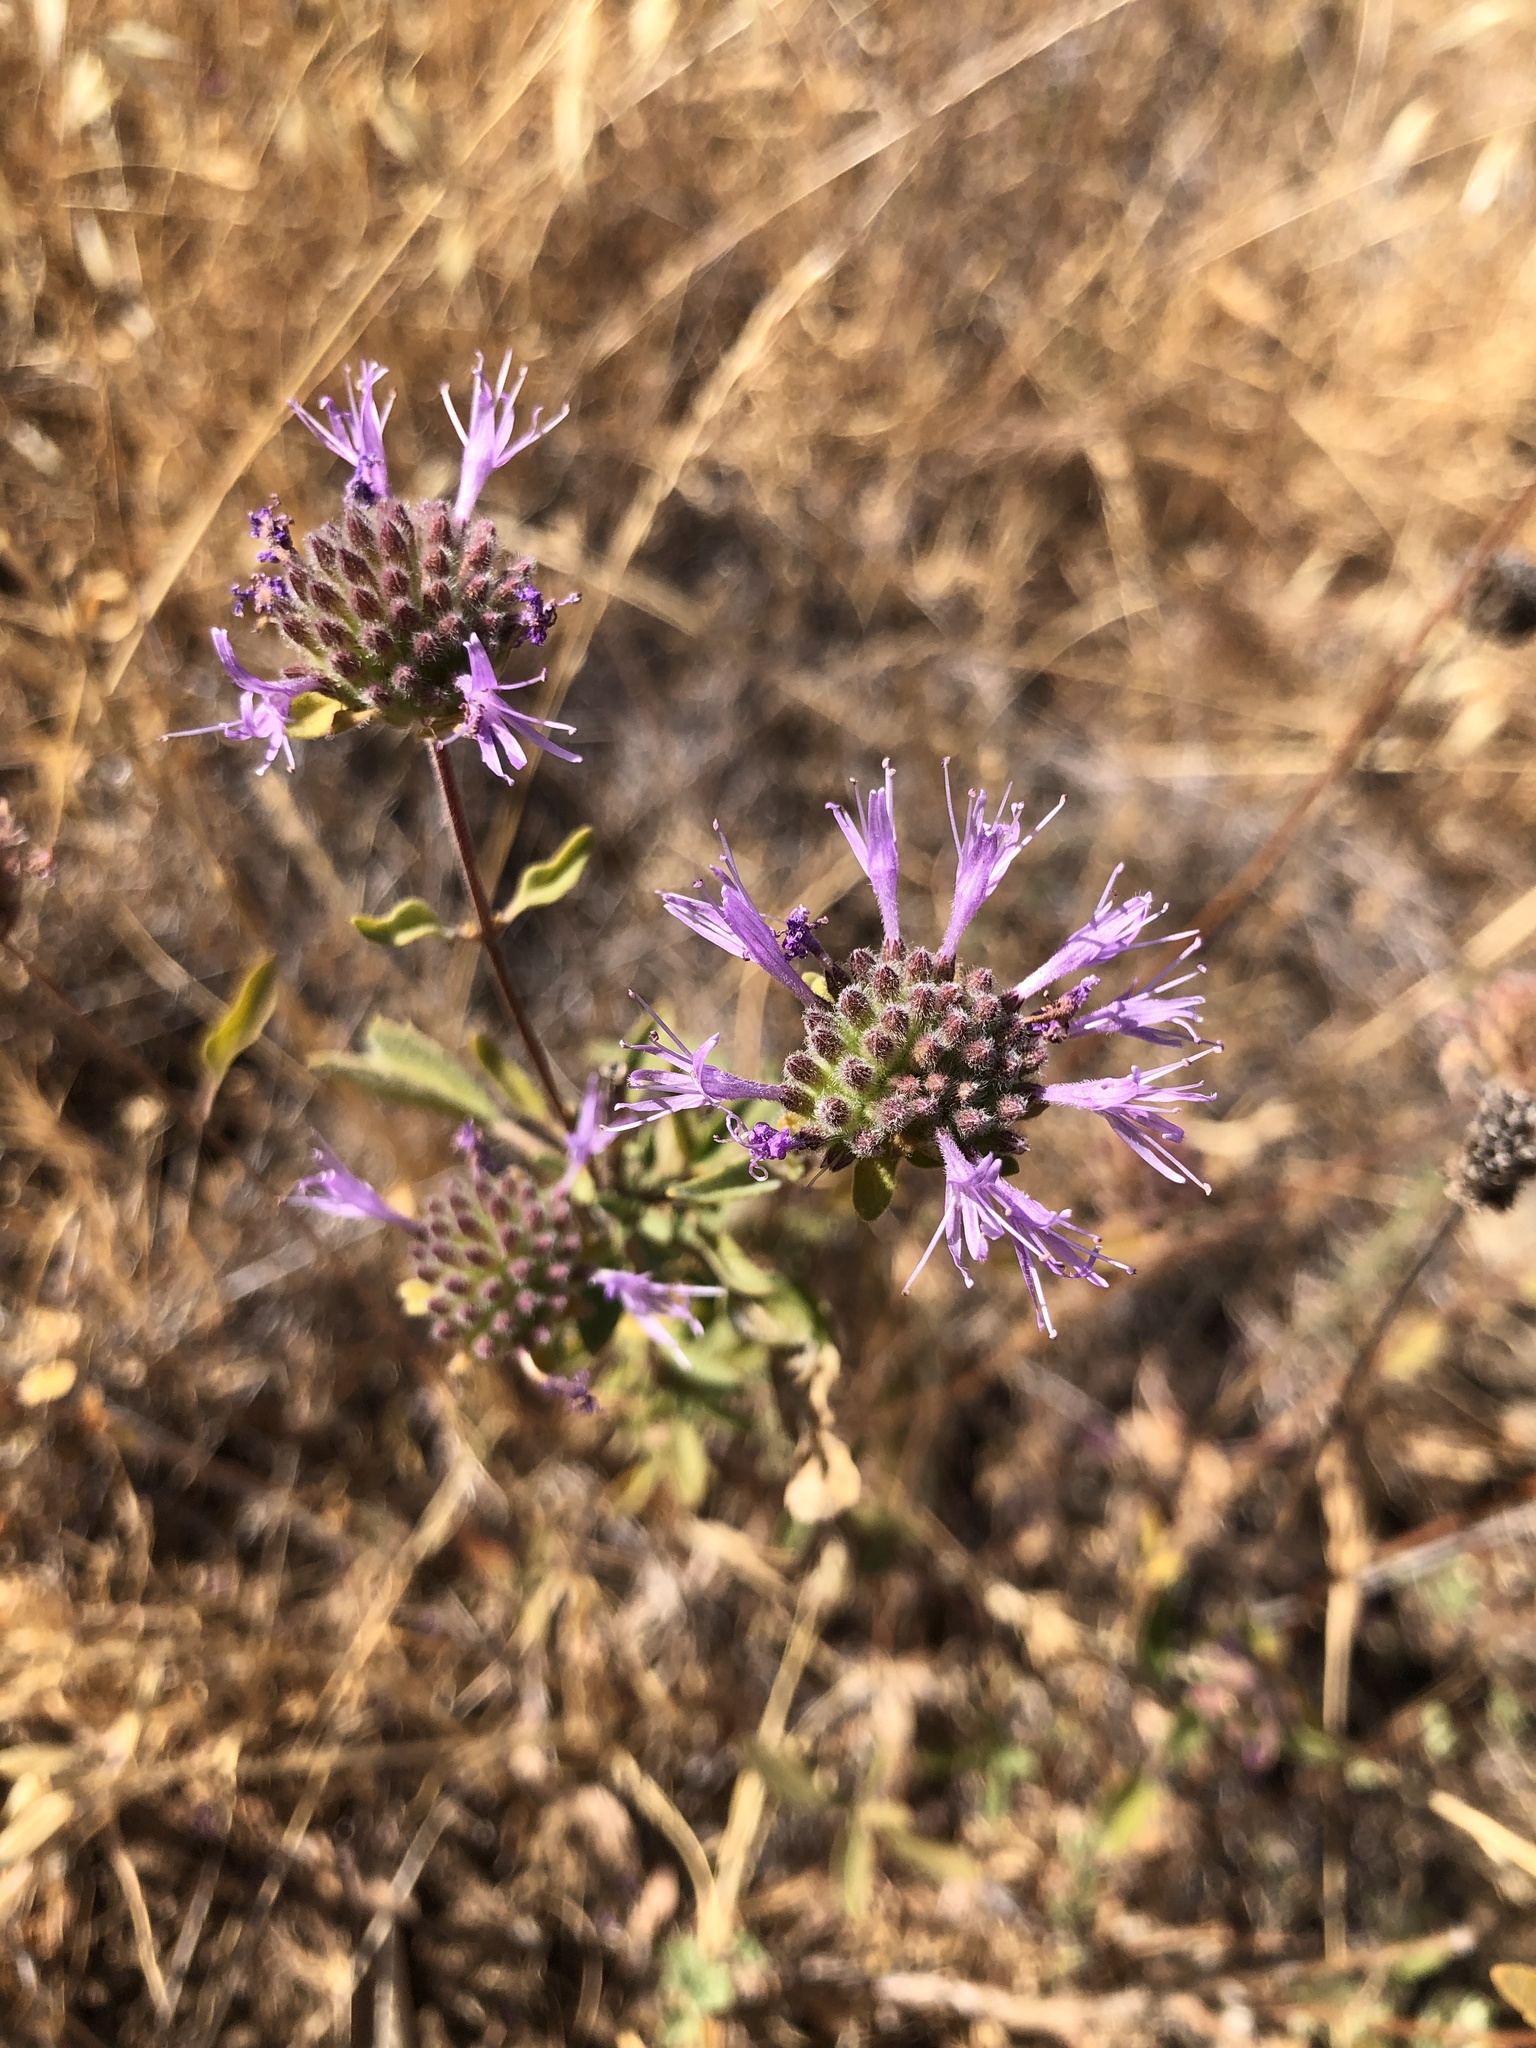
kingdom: Plantae
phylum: Tracheophyta
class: Magnoliopsida
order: Lamiales
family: Lamiaceae
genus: Monardella
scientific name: Monardella odoratissima
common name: Pacific monardella
